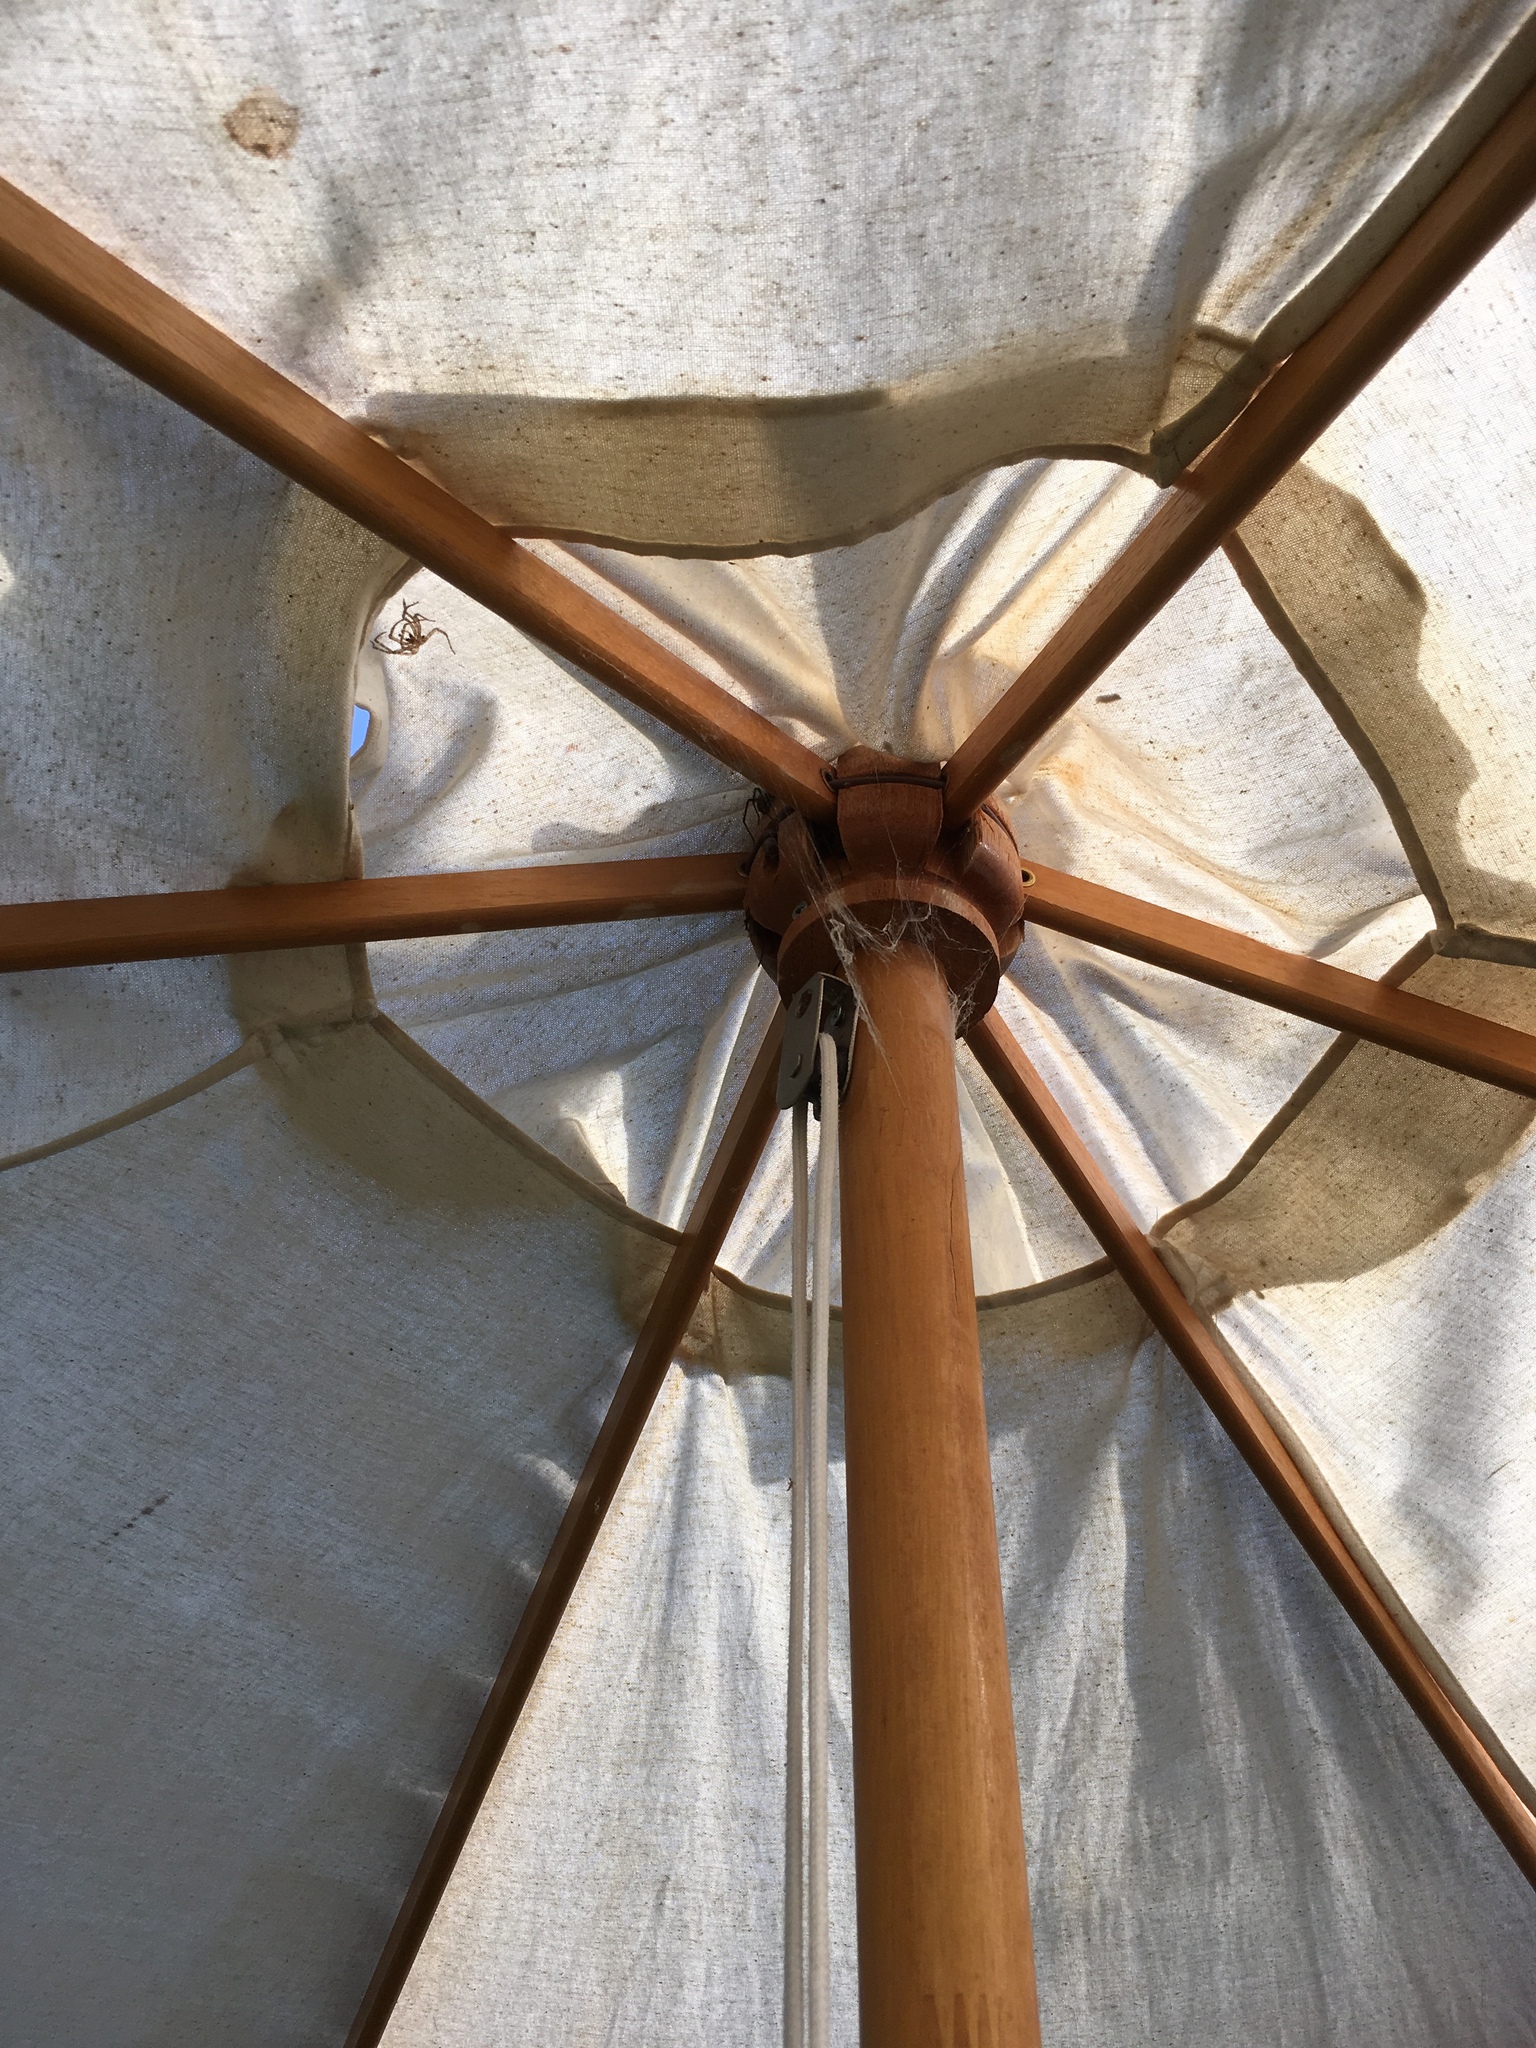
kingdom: Animalia
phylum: Arthropoda
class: Arachnida
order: Araneae
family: Agelenidae
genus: Eratigena
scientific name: Eratigena atrica
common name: Giant house spider
